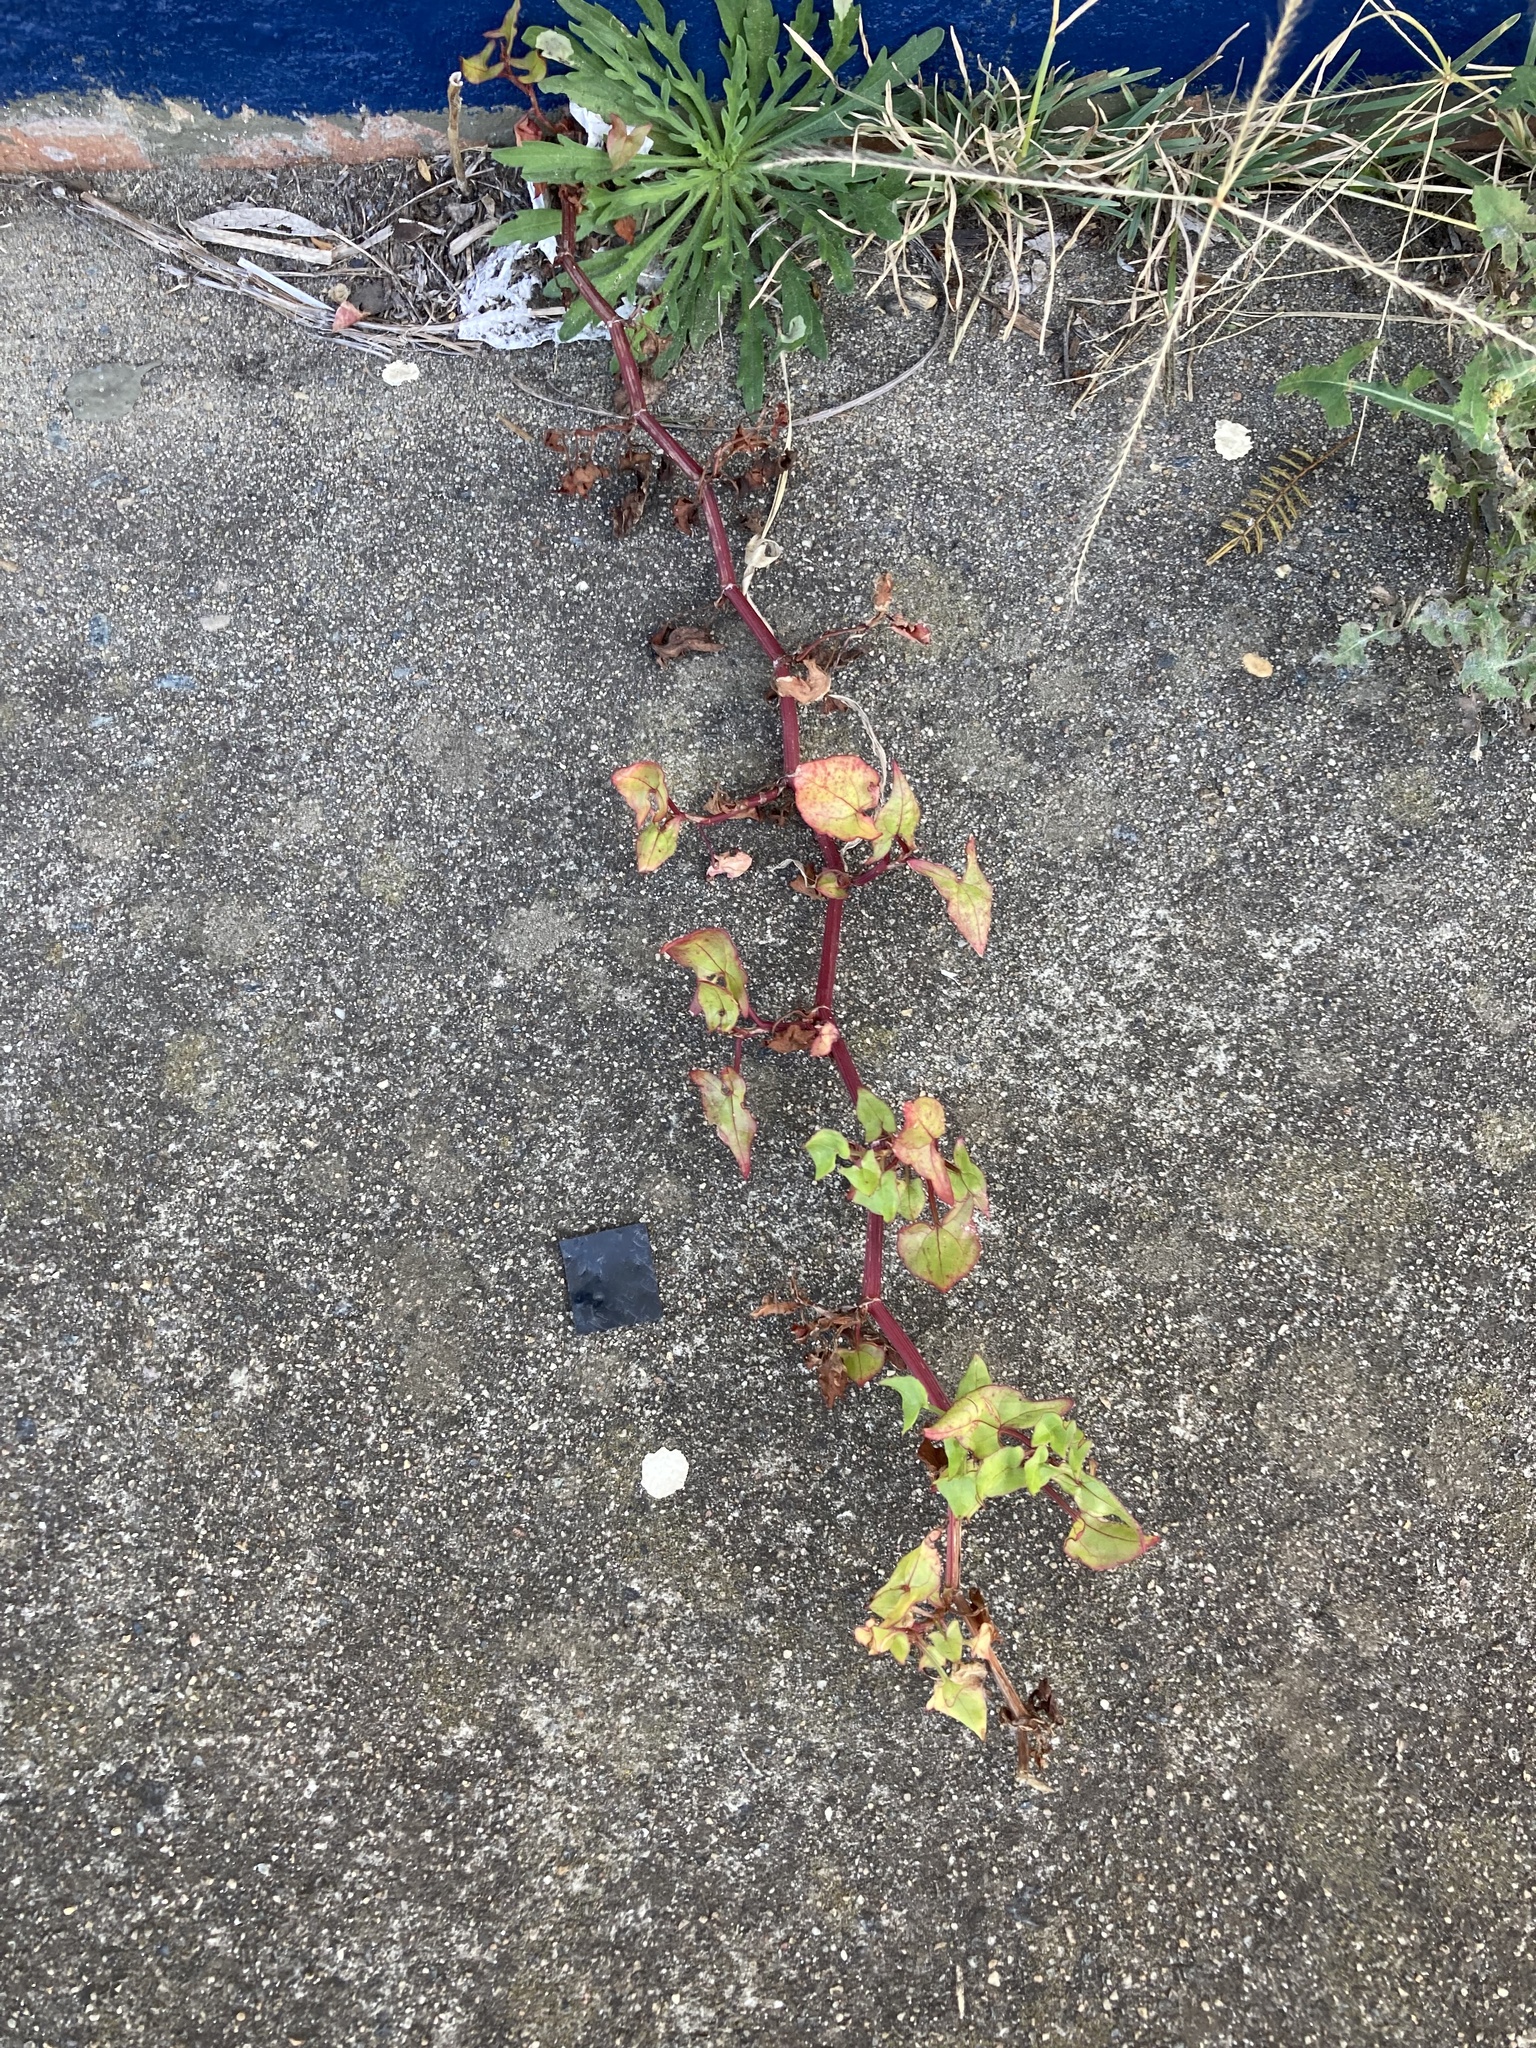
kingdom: Plantae
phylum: Tracheophyta
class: Magnoliopsida
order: Caryophyllales
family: Polygonaceae
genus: Rumex
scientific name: Rumex sagittatus
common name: Climbing dock
